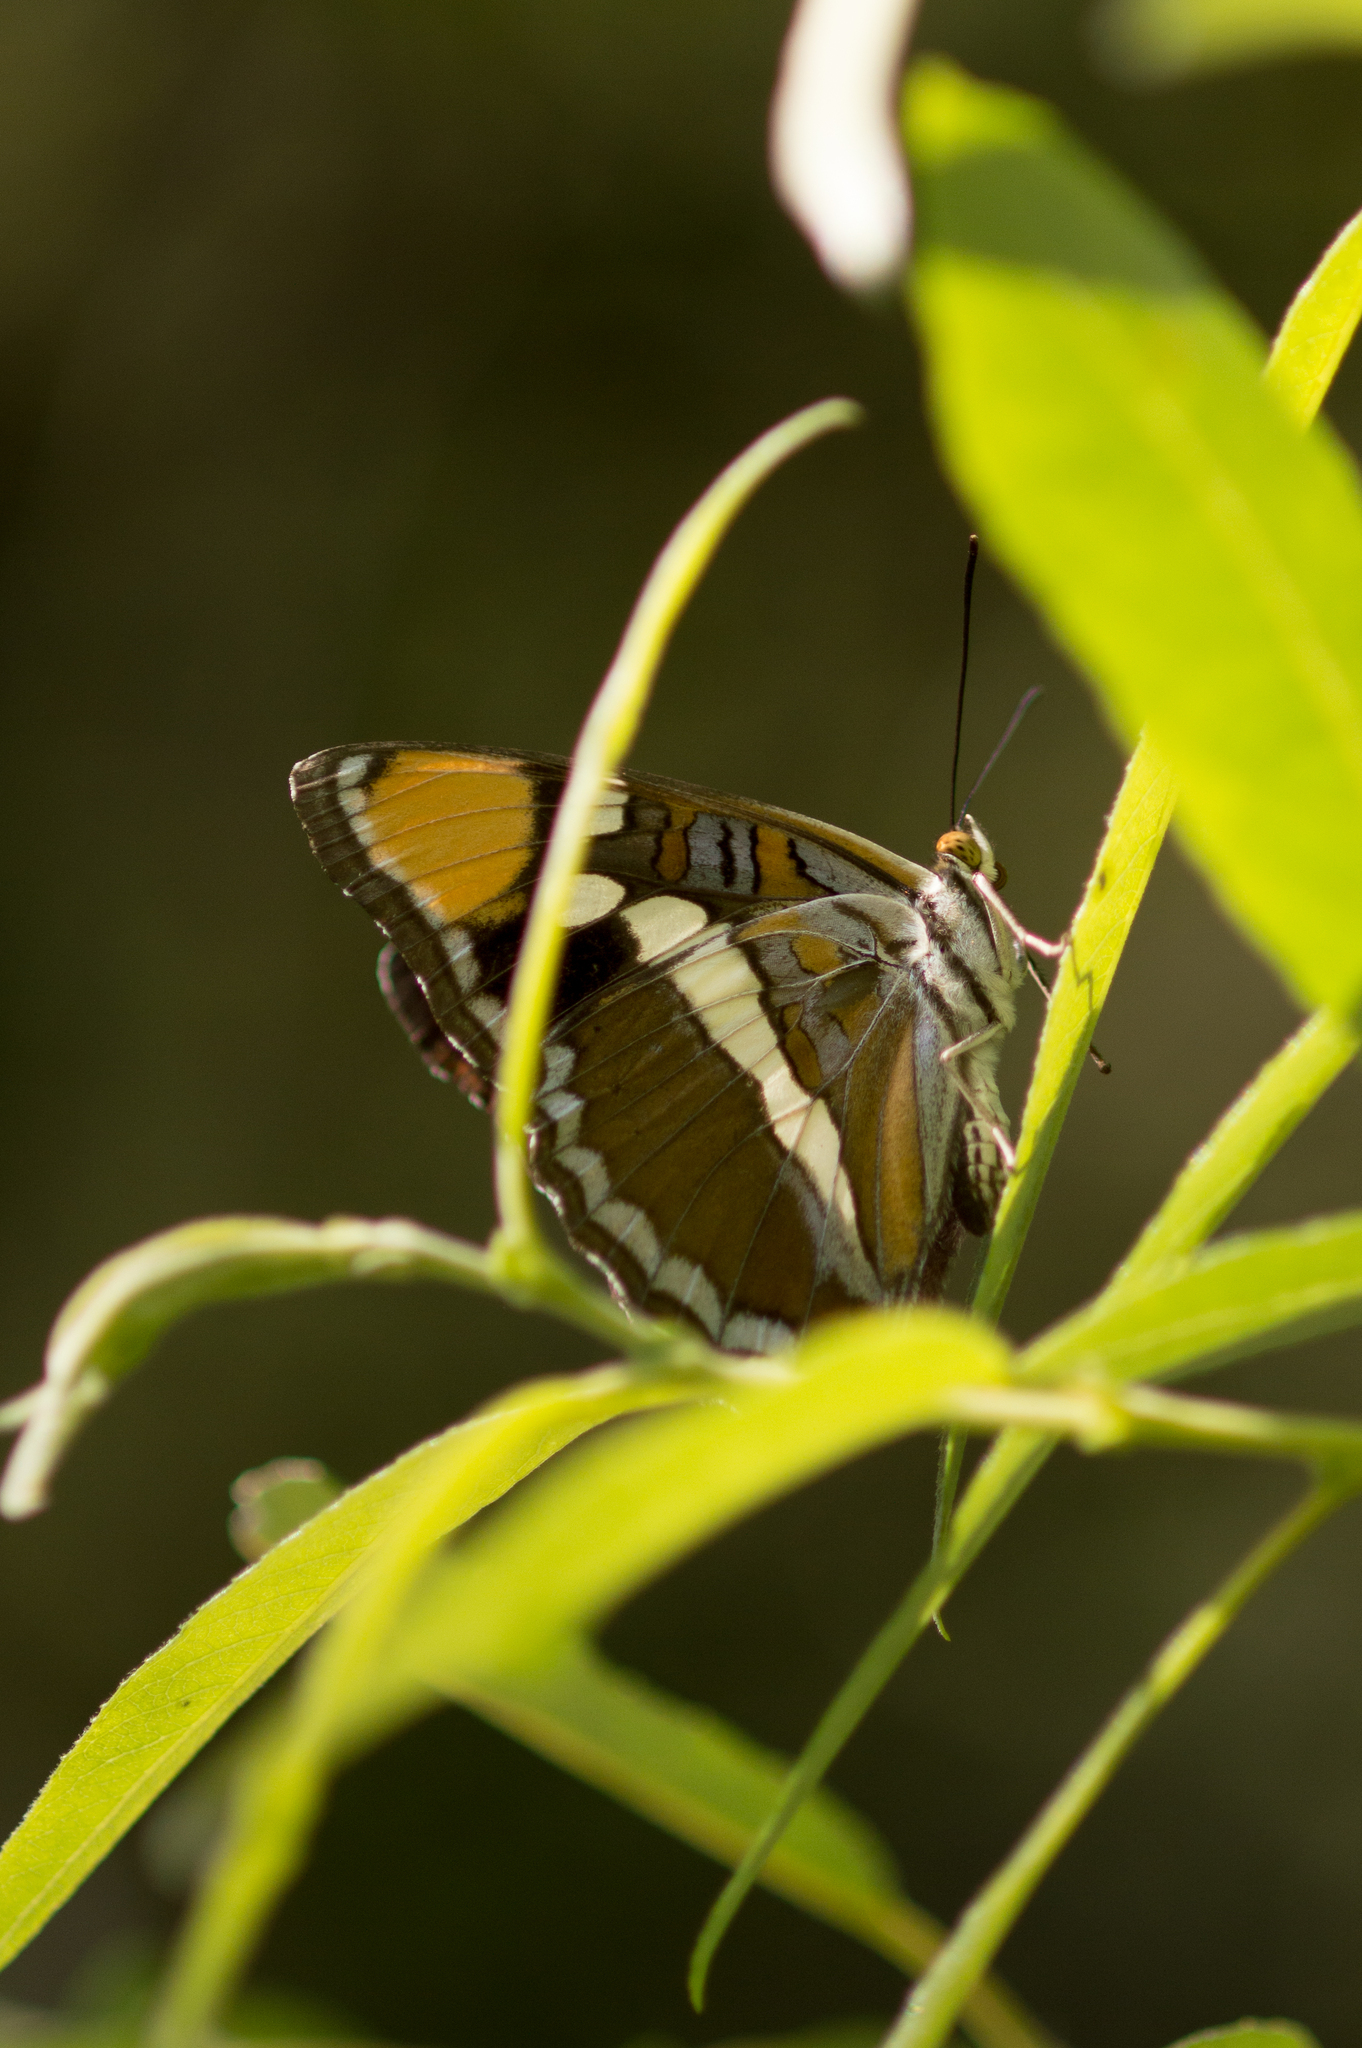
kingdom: Animalia
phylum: Arthropoda
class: Insecta
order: Lepidoptera
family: Nymphalidae
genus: Limenitis
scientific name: Limenitis bredowii
